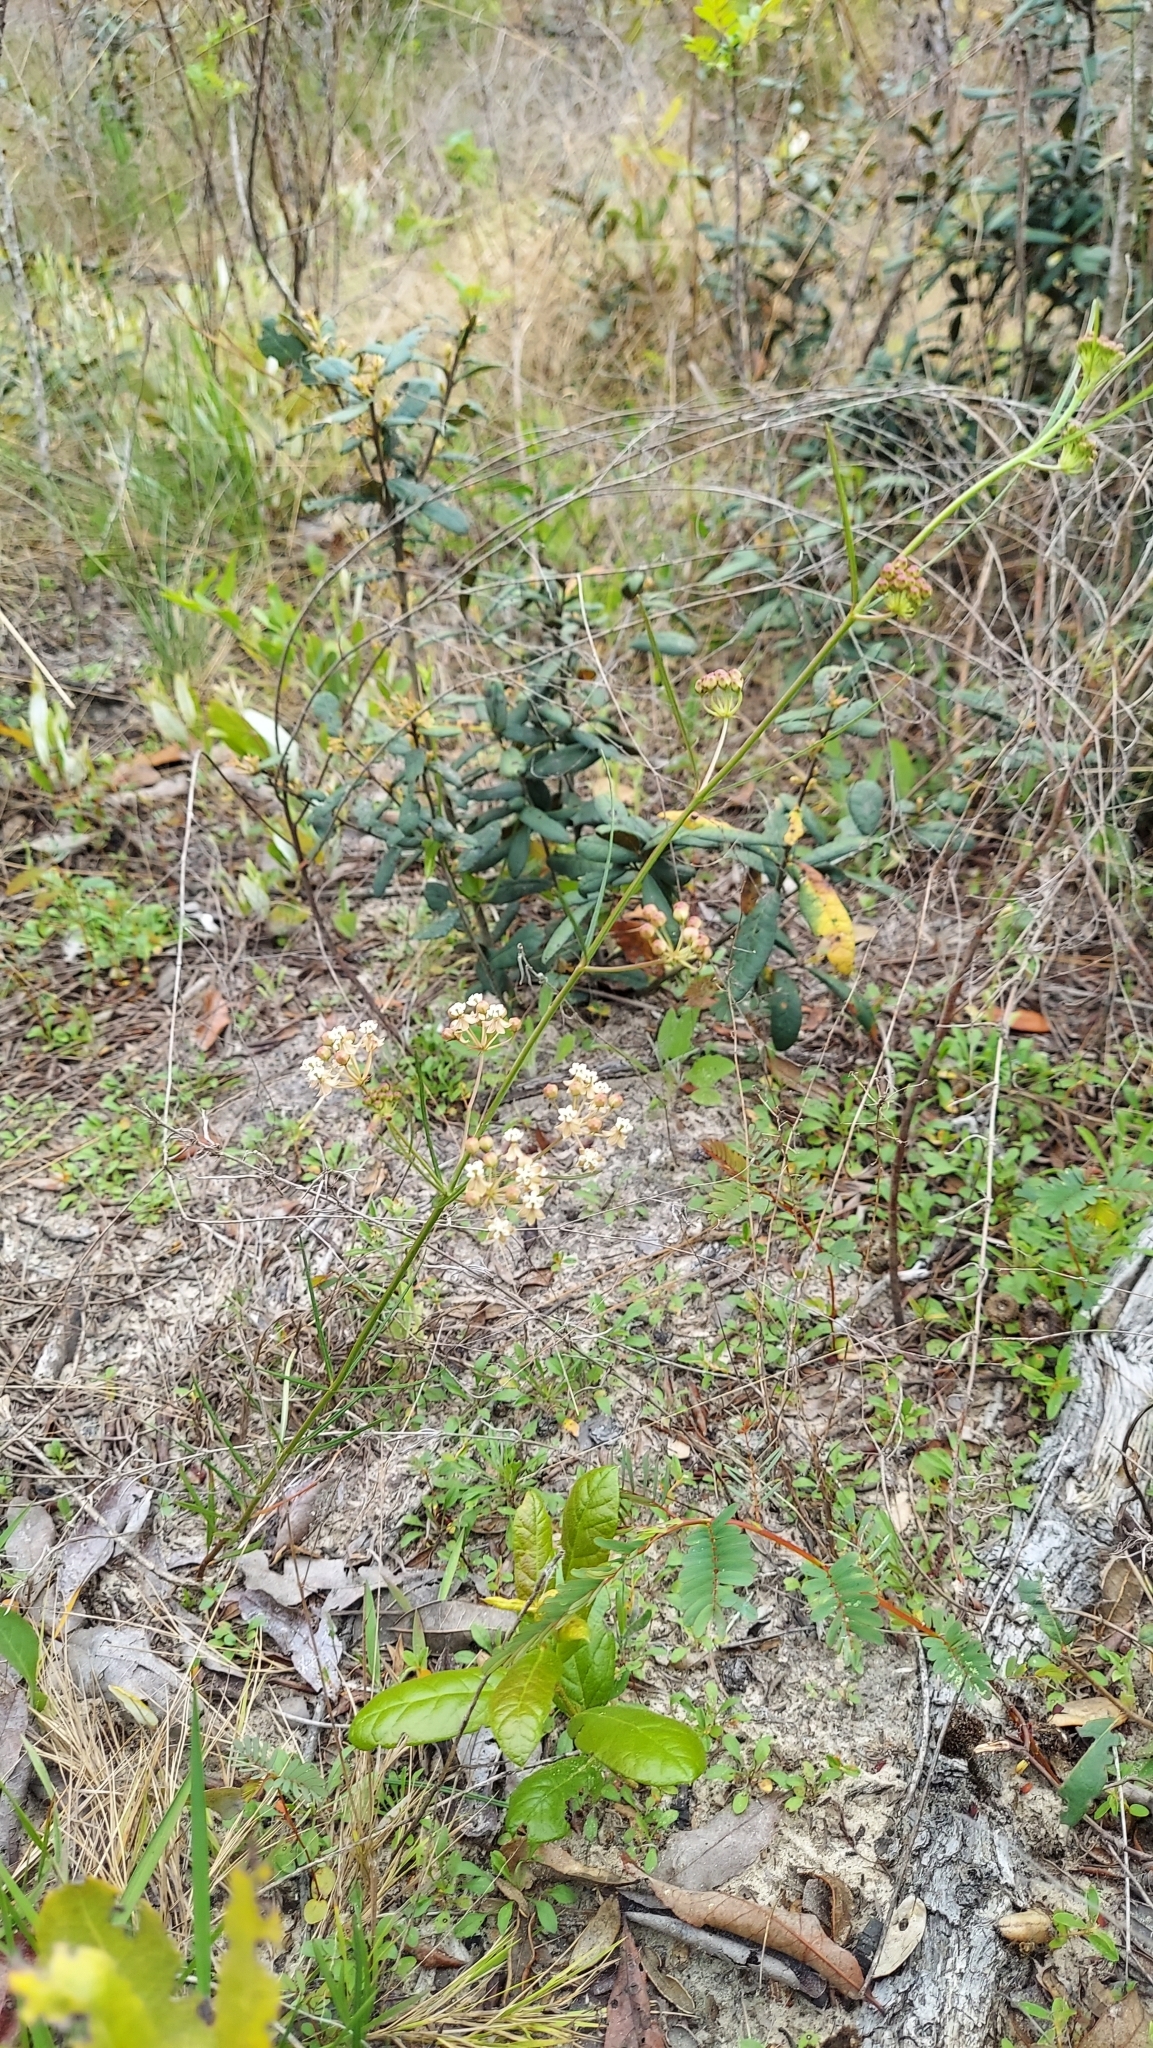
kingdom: Plantae
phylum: Tracheophyta
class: Magnoliopsida
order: Gentianales
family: Apocynaceae
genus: Asclepias
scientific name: Asclepias verticillata
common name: Eastern whorled milkweed
